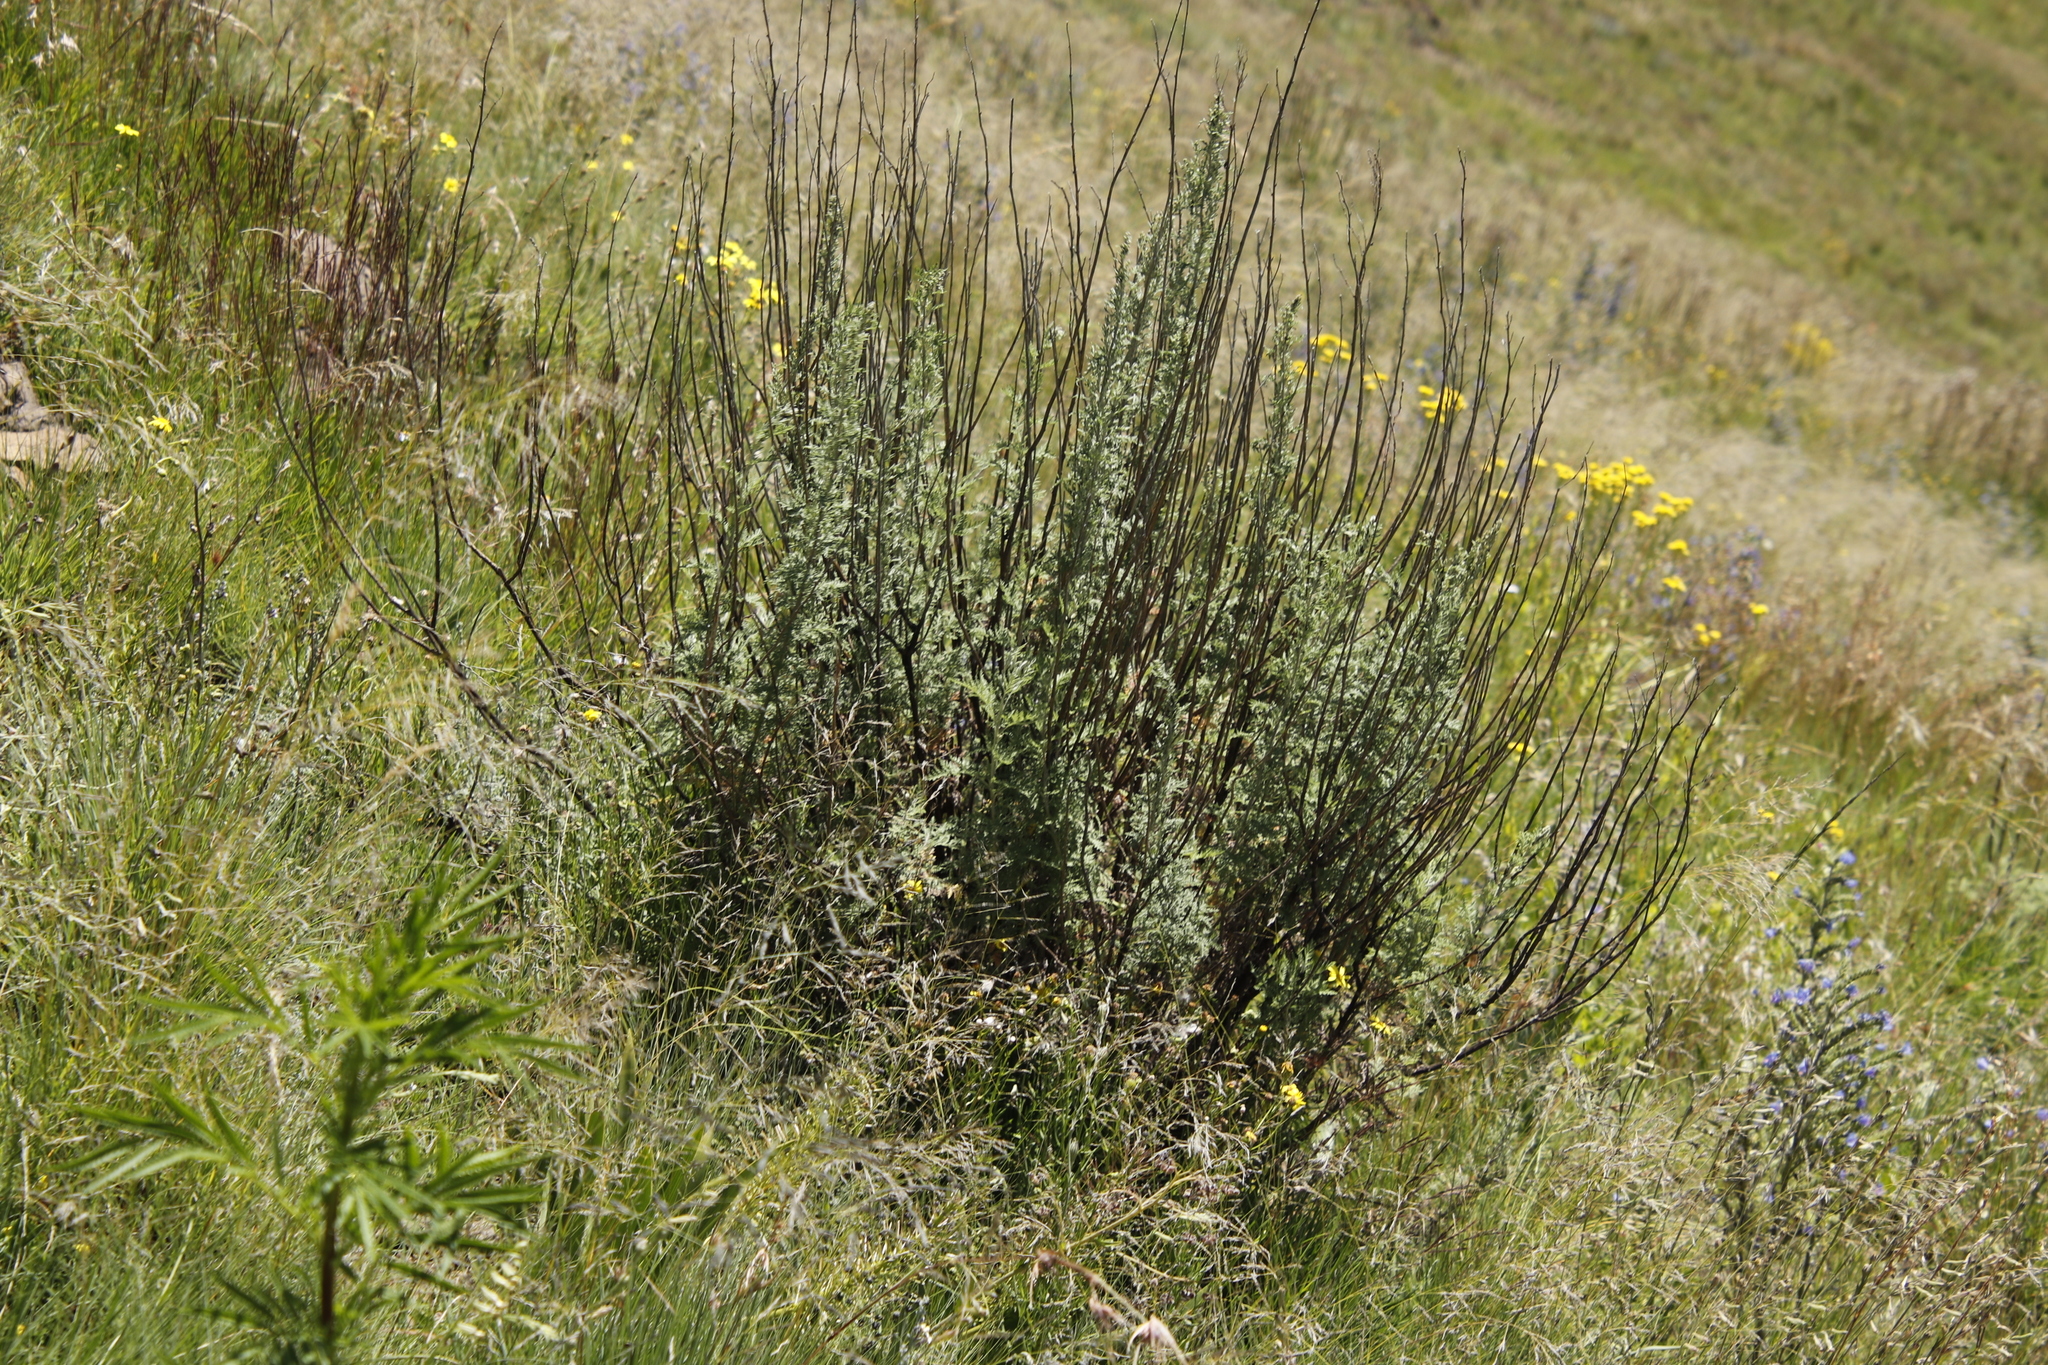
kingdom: Plantae
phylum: Tracheophyta
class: Magnoliopsida
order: Asterales
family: Asteraceae
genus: Artemisia
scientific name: Artemisia afra
